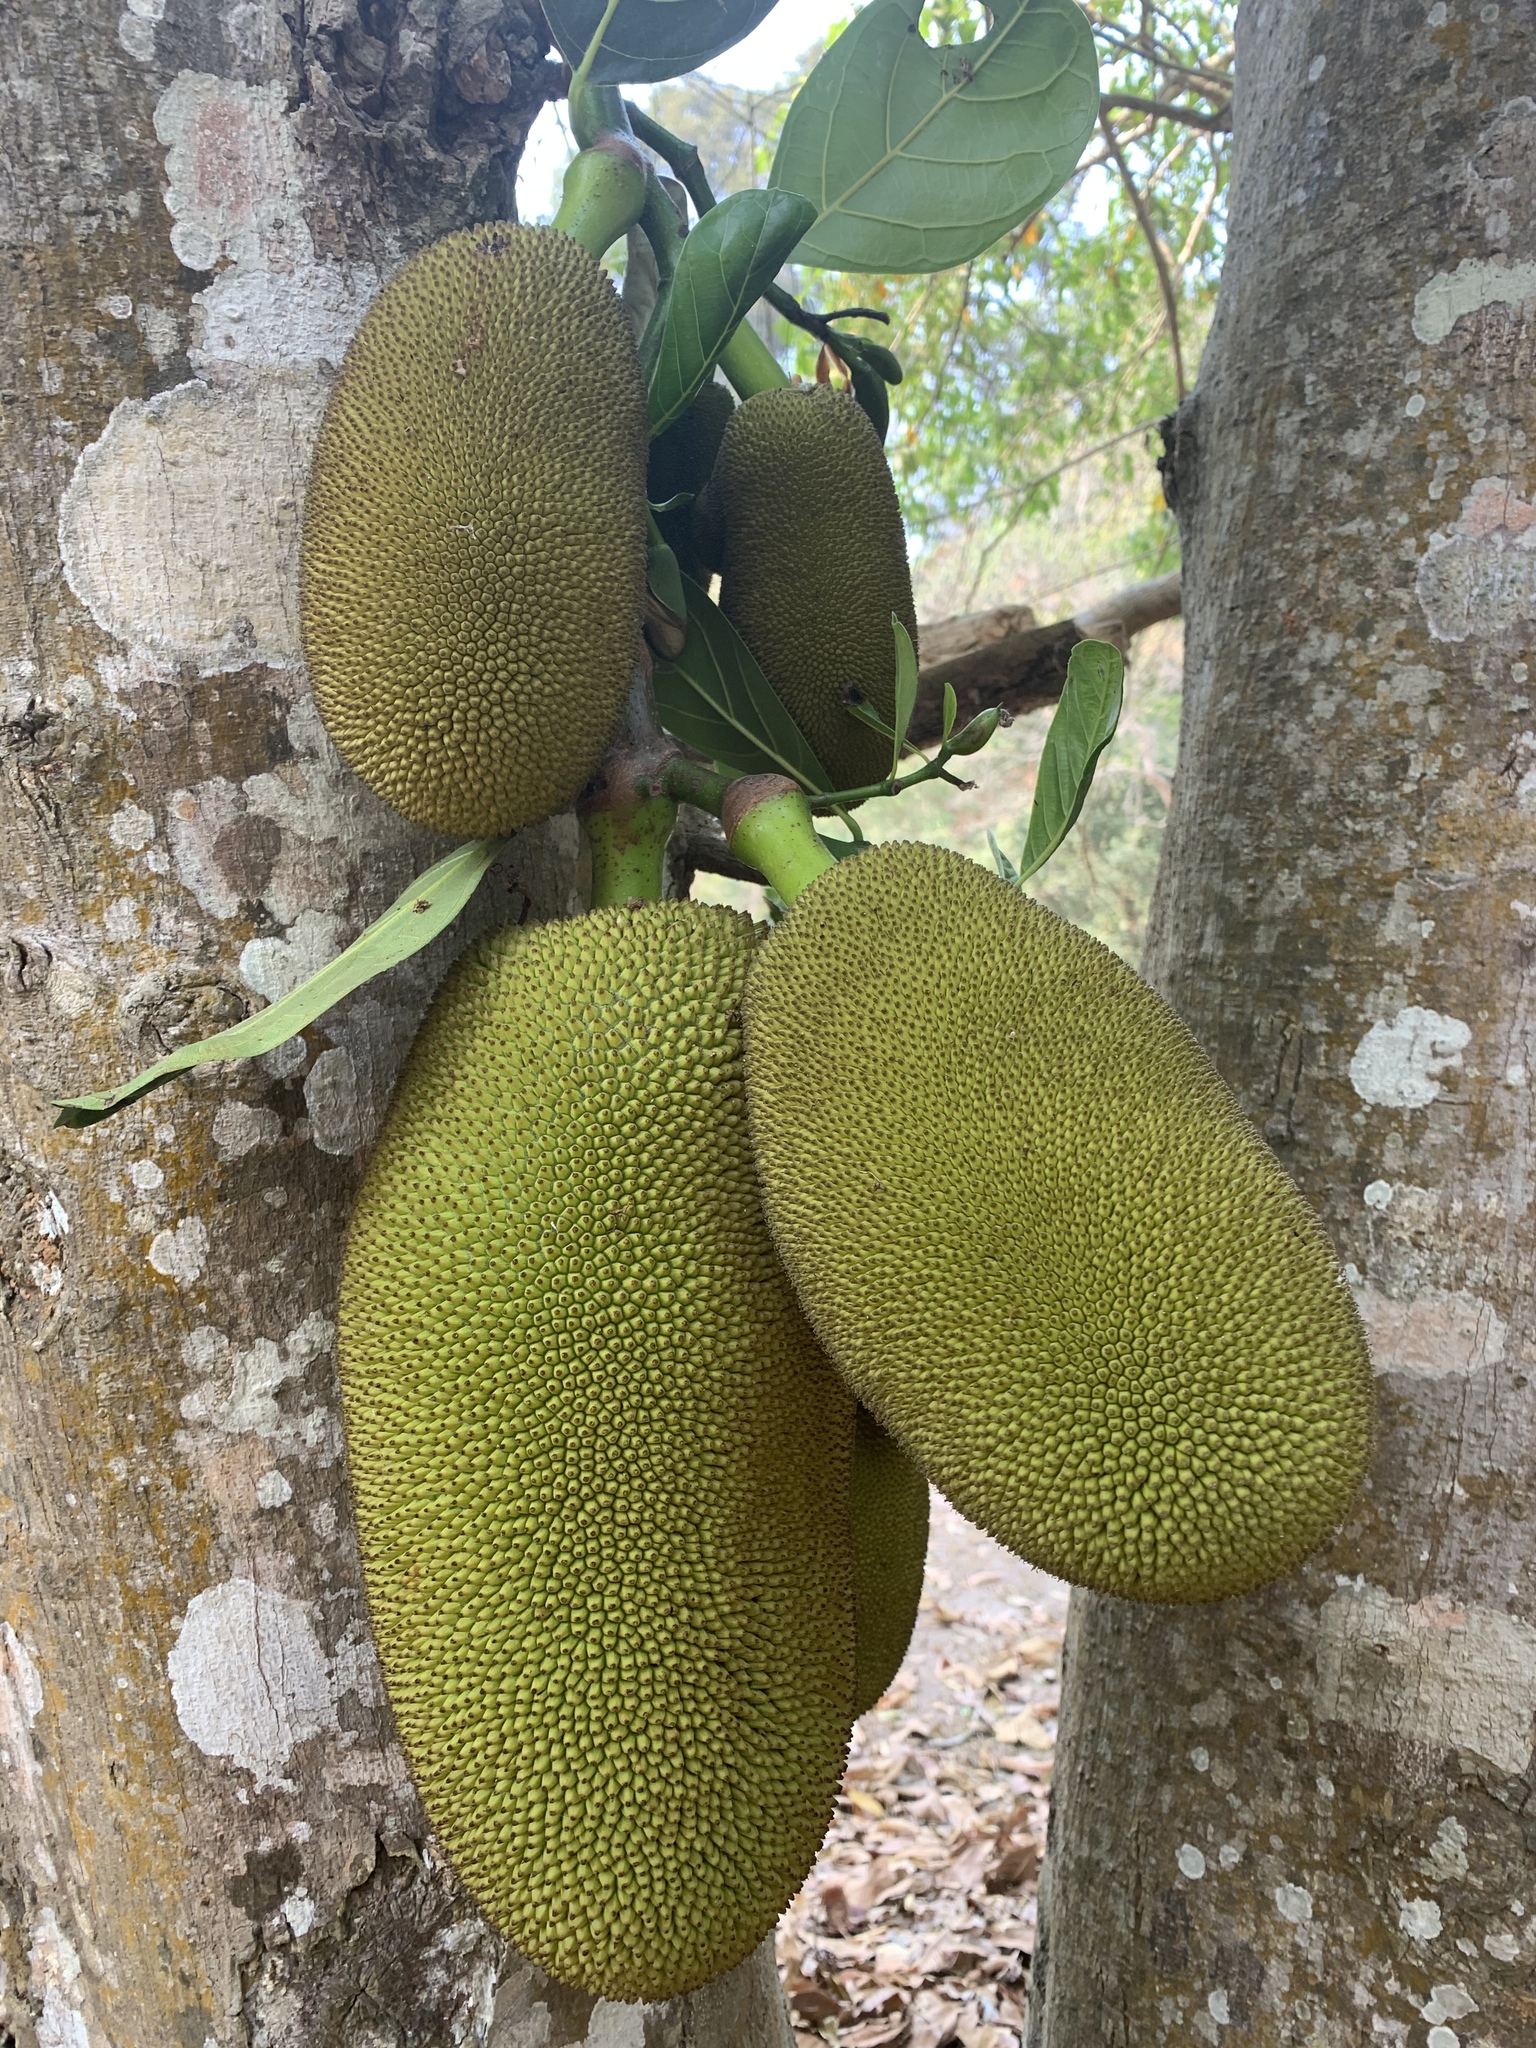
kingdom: Plantae
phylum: Tracheophyta
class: Magnoliopsida
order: Rosales
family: Moraceae
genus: Artocarpus
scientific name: Artocarpus heterophyllus
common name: Jackfruit
